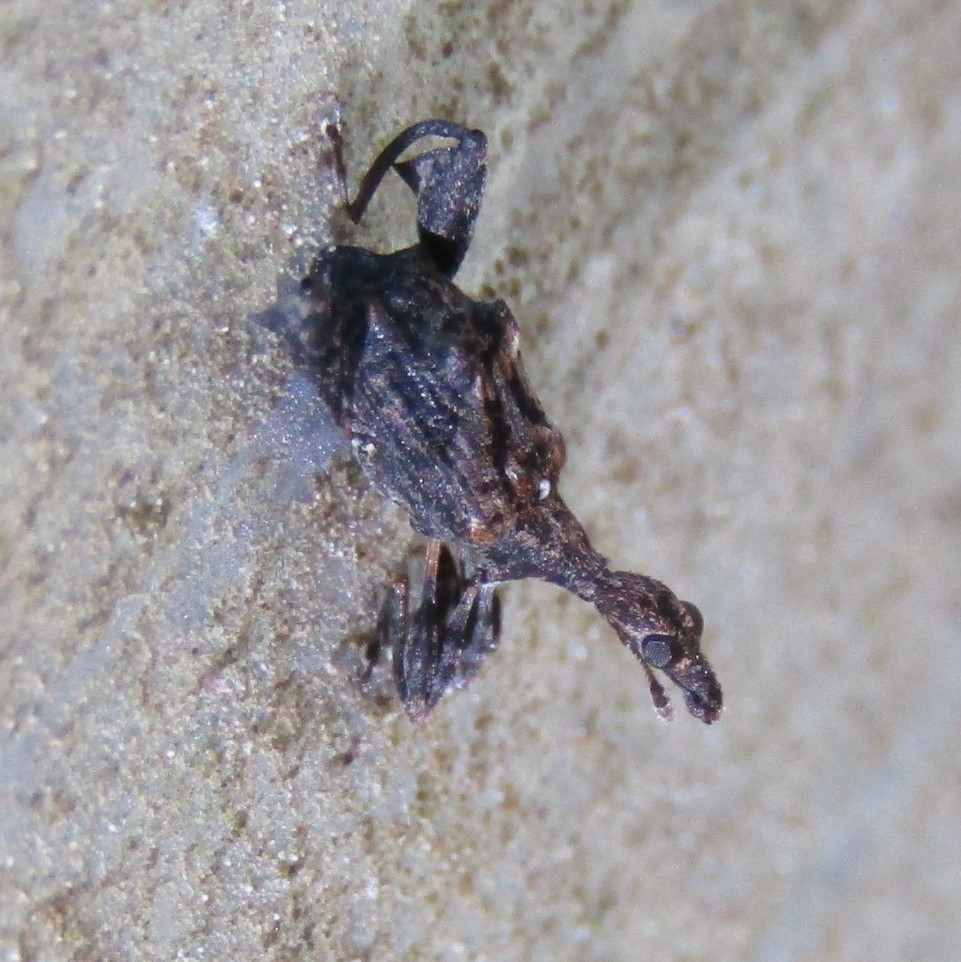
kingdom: Animalia
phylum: Arthropoda
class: Insecta
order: Coleoptera
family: Curculionidae
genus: Stephanorhynchus
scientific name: Stephanorhynchus lawsoni
